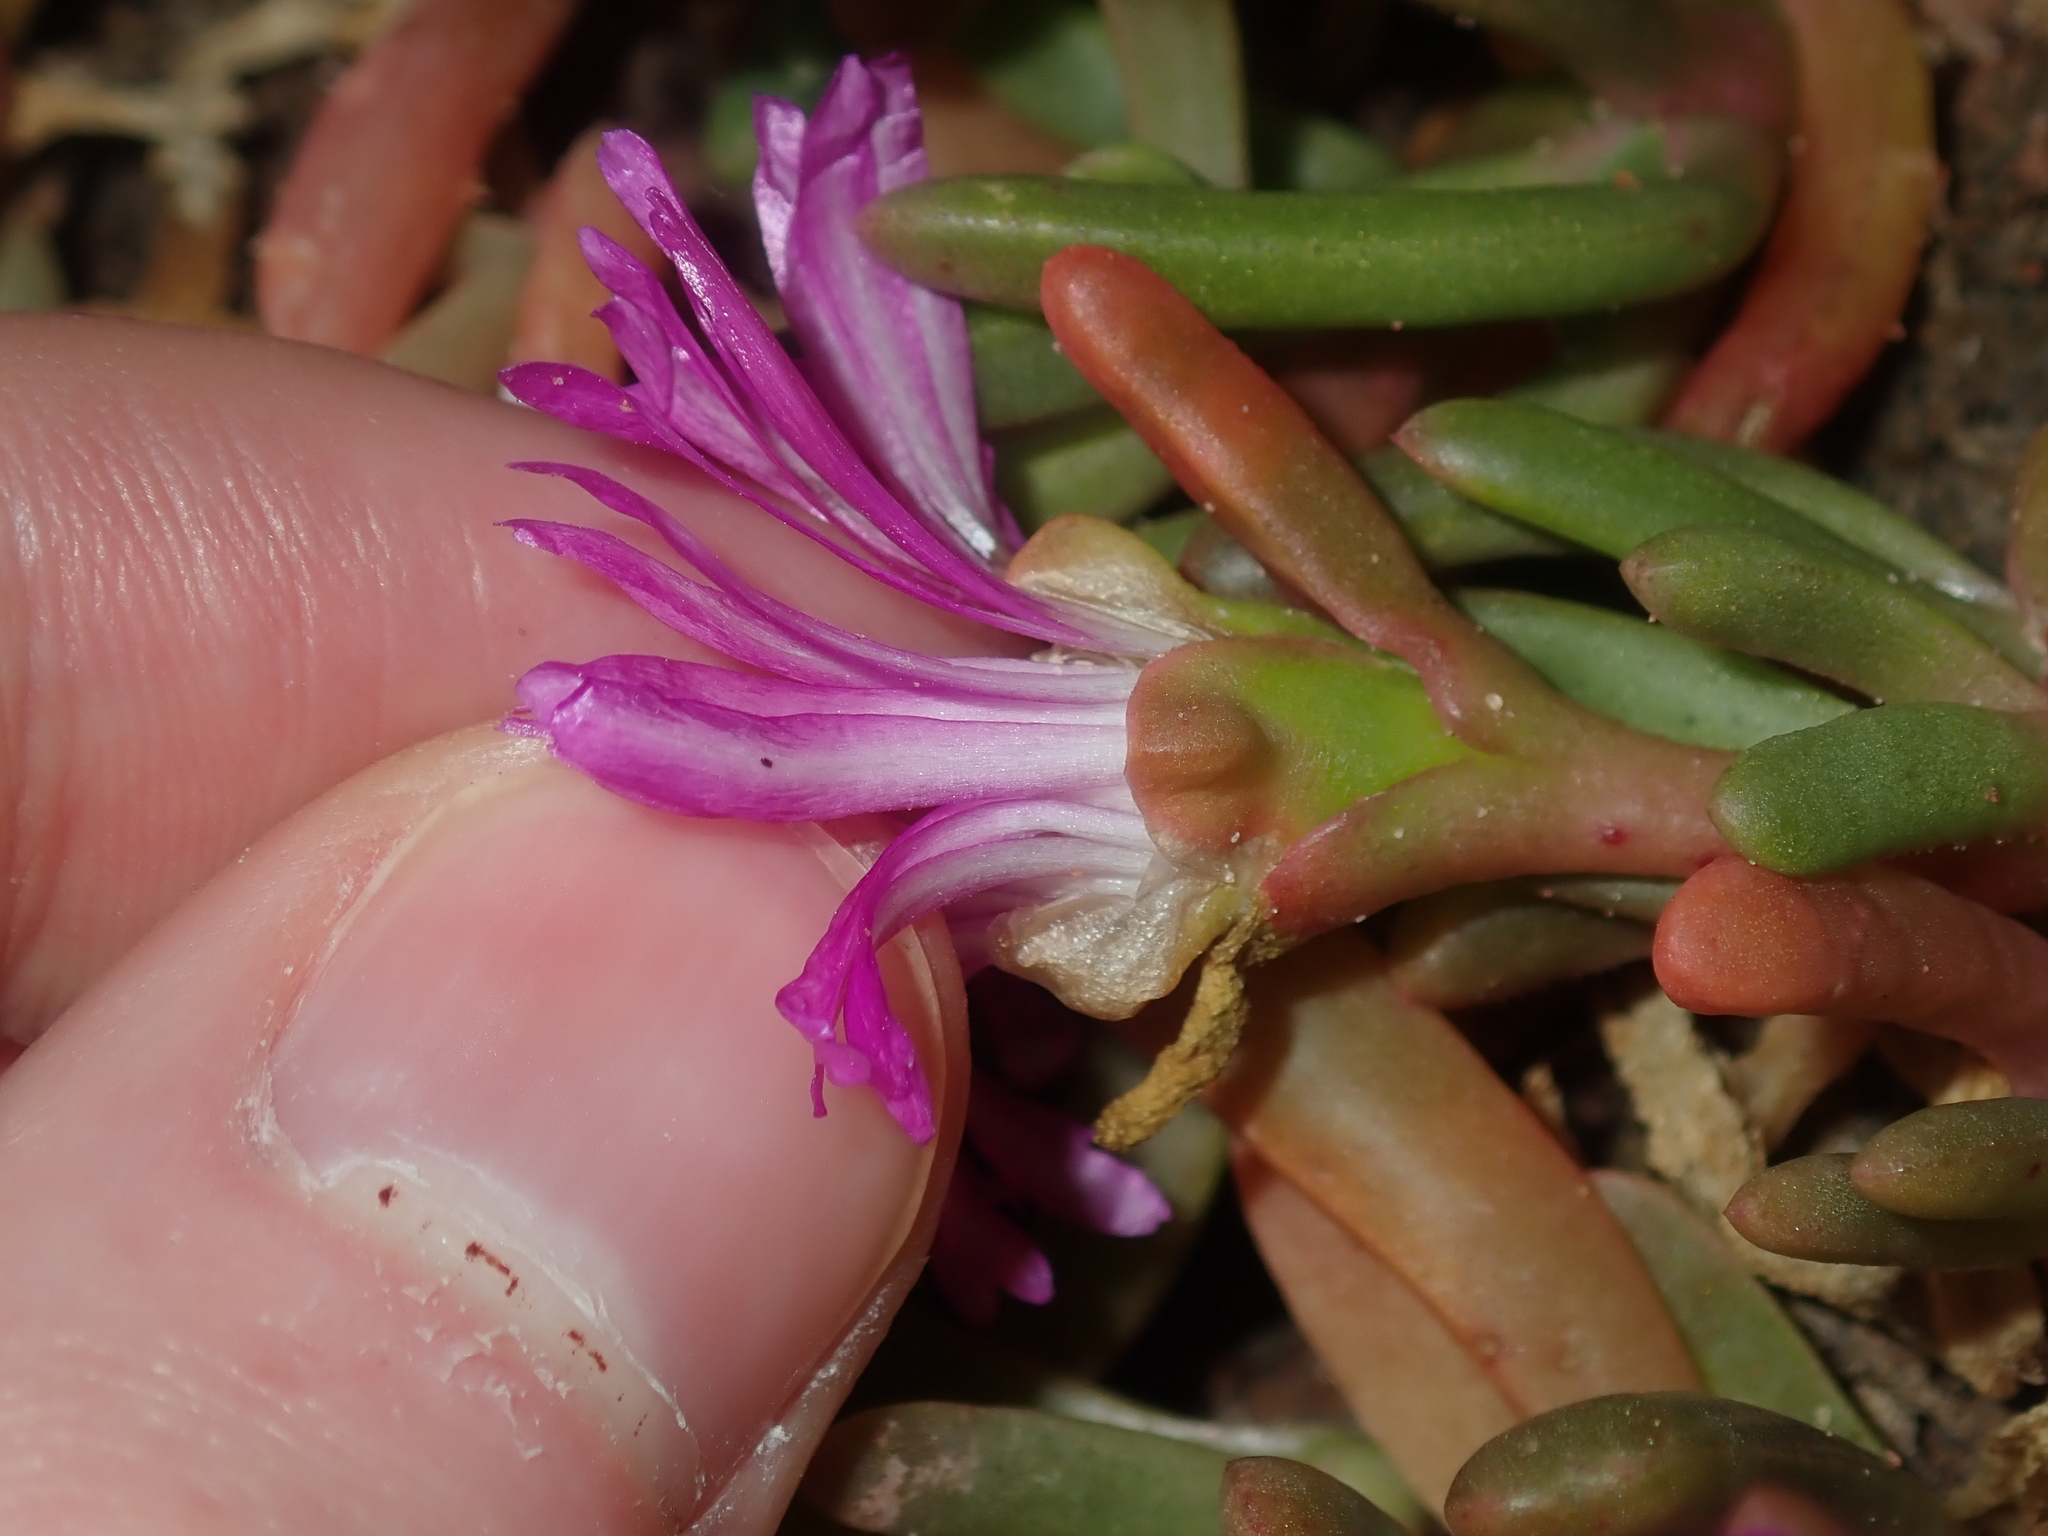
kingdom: Plantae
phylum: Tracheophyta
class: Magnoliopsida
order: Caryophyllales
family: Aizoaceae
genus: Carpobrotus
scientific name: Carpobrotus virescens
